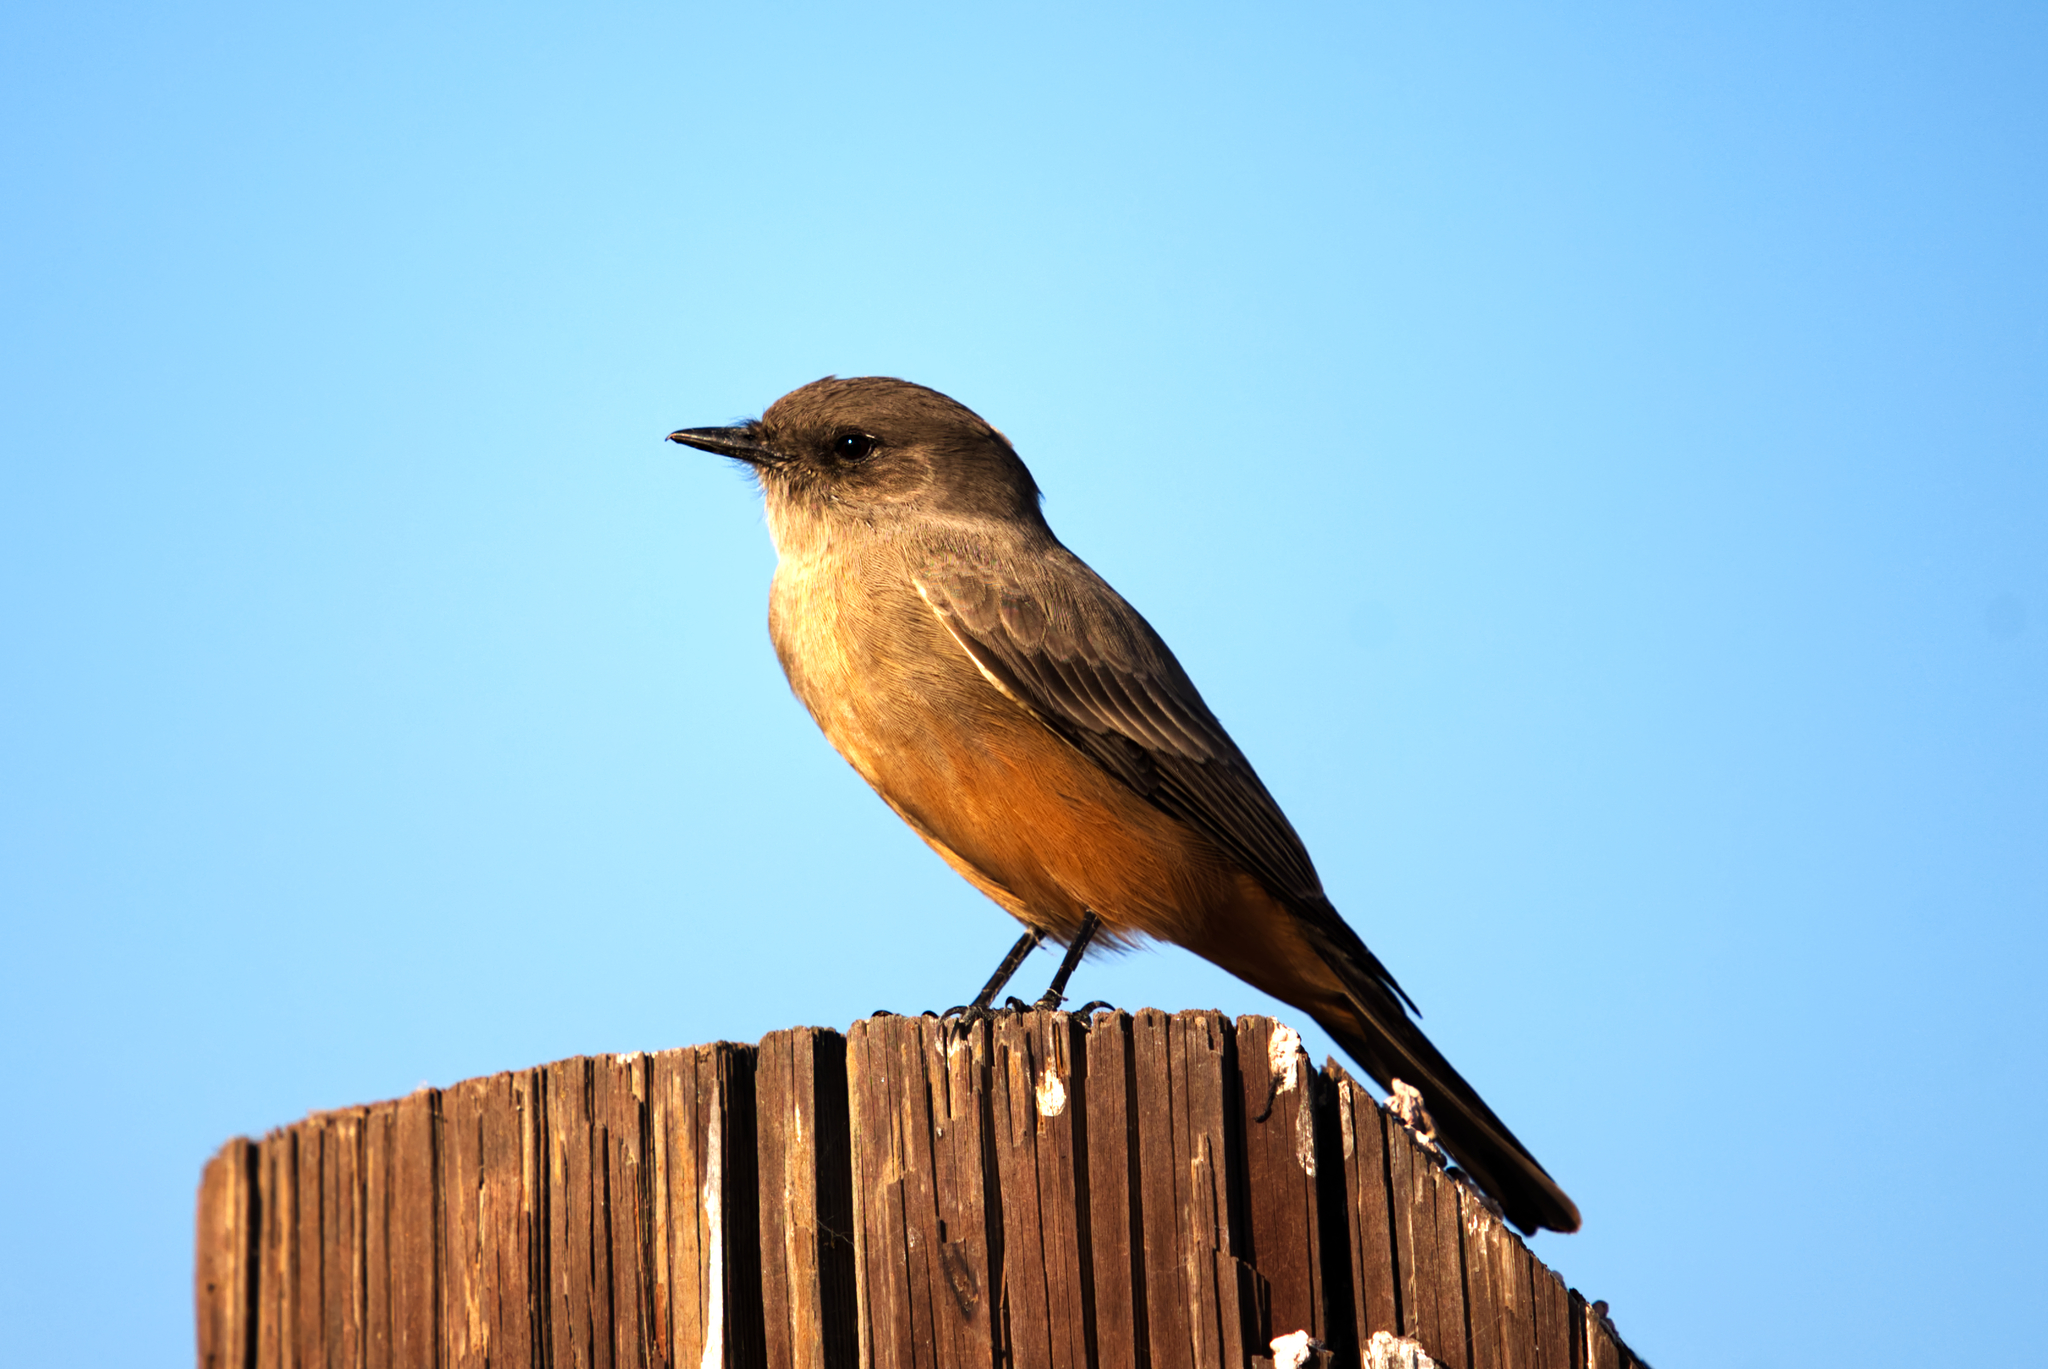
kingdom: Animalia
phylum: Chordata
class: Aves
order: Passeriformes
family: Tyrannidae
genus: Sayornis
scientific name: Sayornis saya
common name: Say's phoebe
